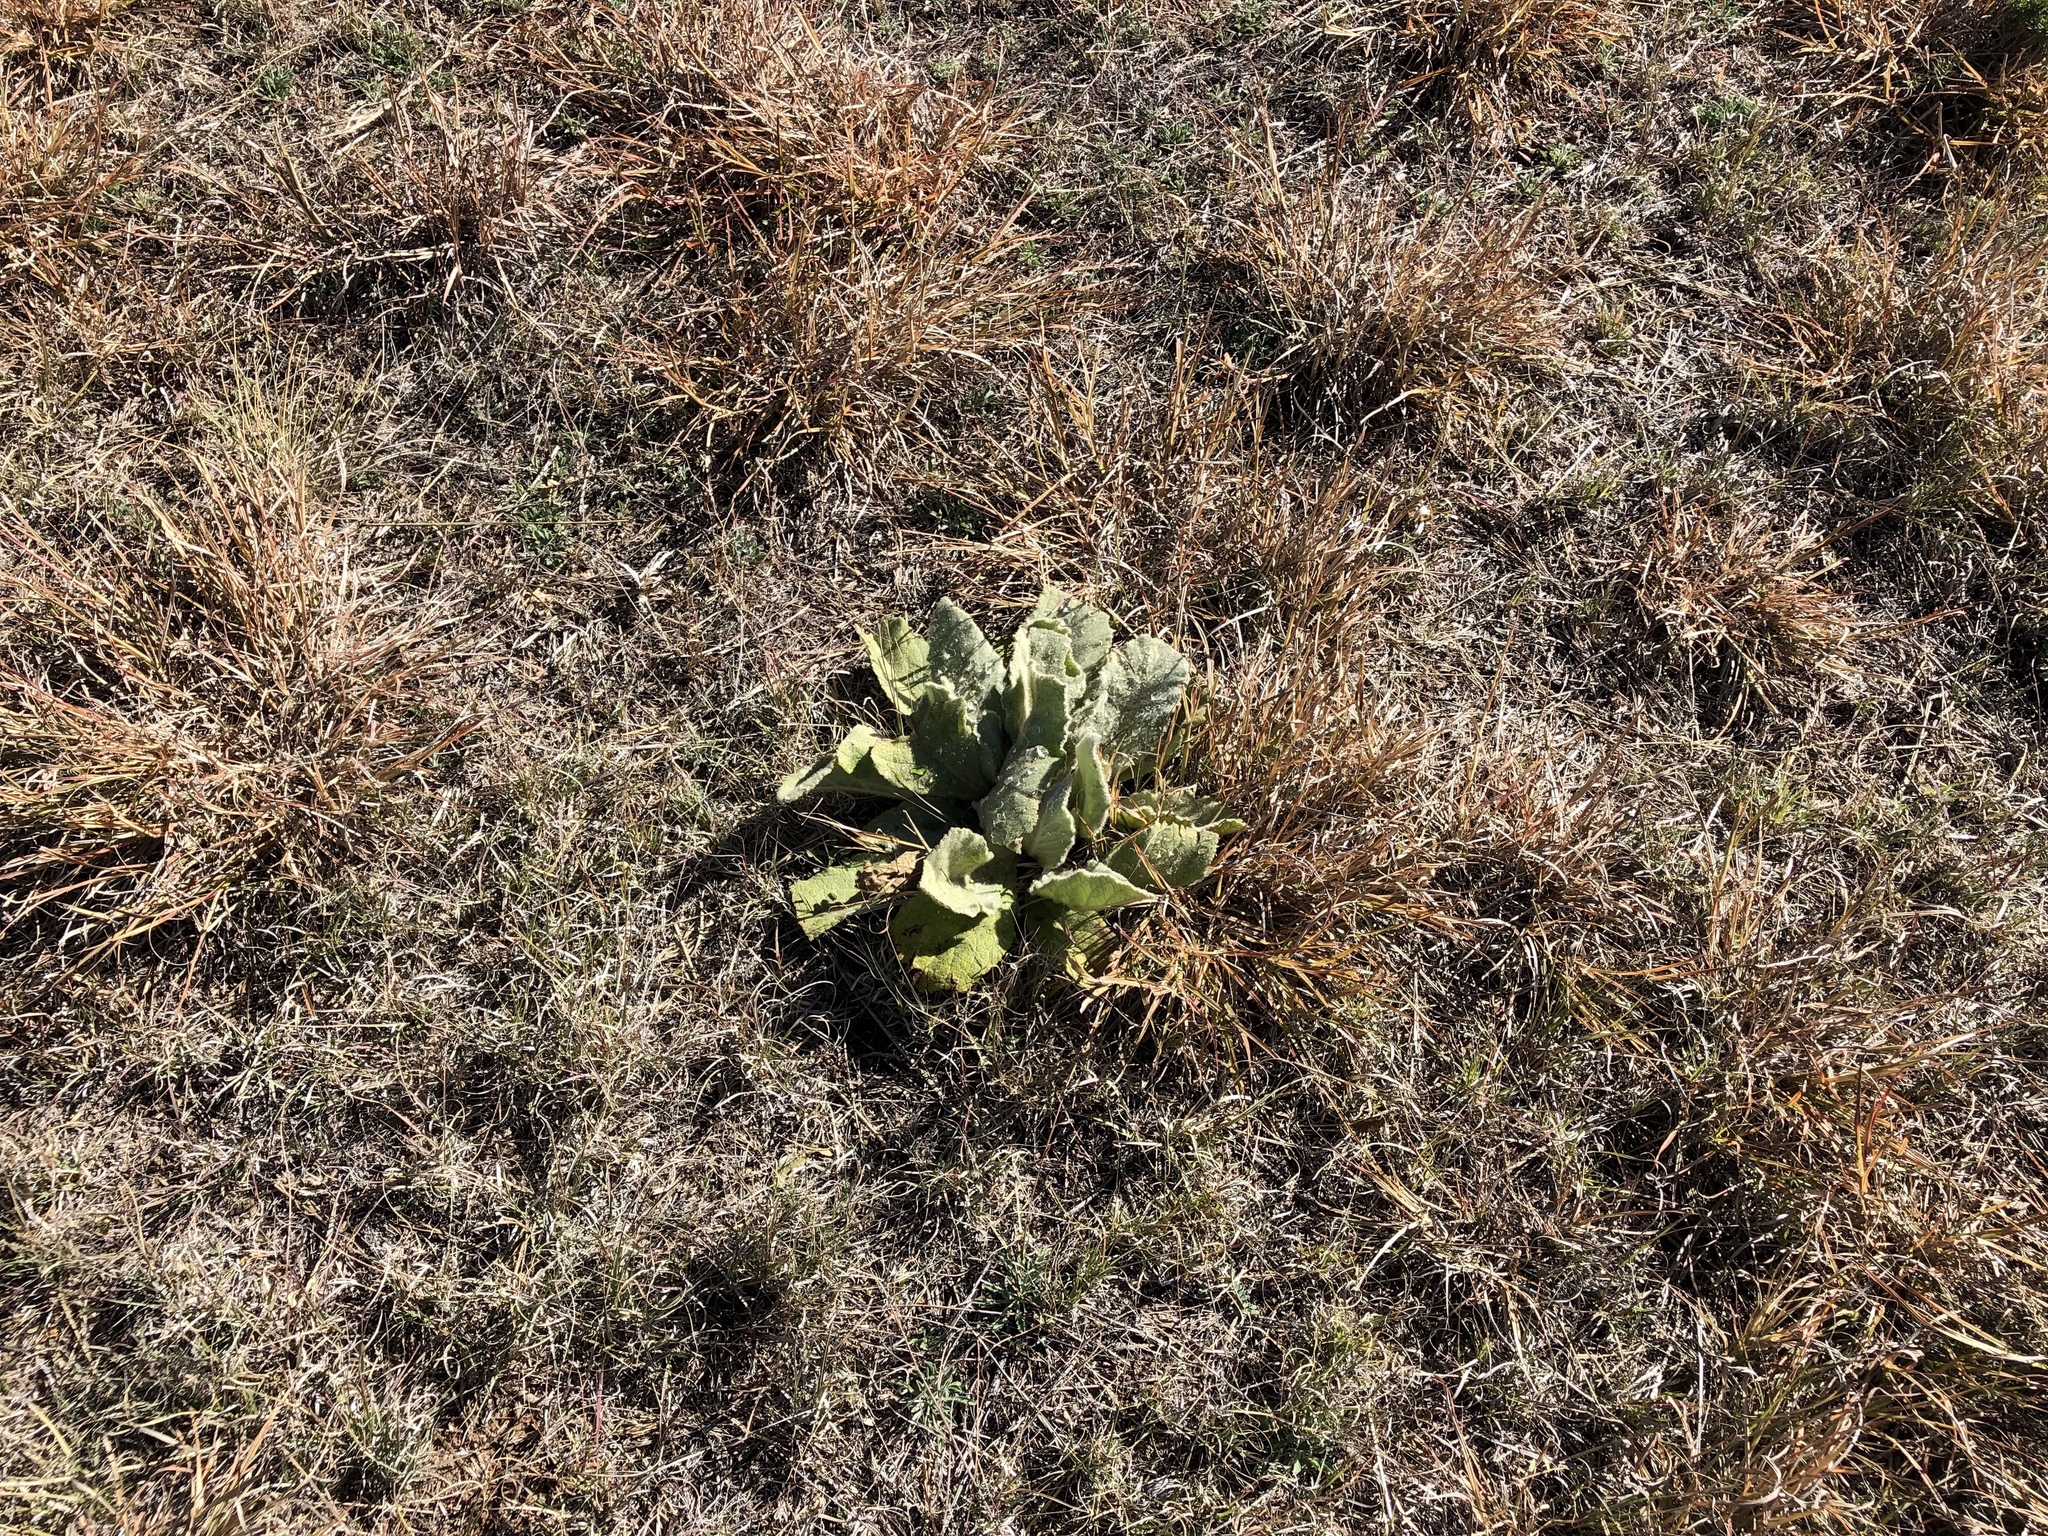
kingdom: Plantae
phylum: Tracheophyta
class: Magnoliopsida
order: Lamiales
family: Scrophulariaceae
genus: Verbascum
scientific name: Verbascum thapsus
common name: Common mullein
